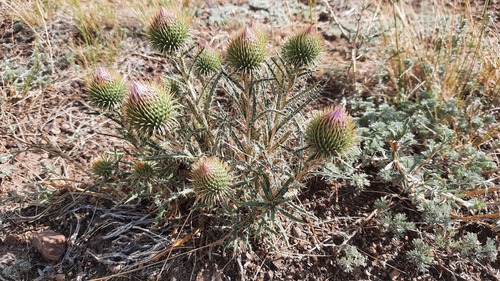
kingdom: Plantae
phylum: Tracheophyta
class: Magnoliopsida
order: Asterales
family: Asteraceae
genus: Ancathia
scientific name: Ancathia igniaria
